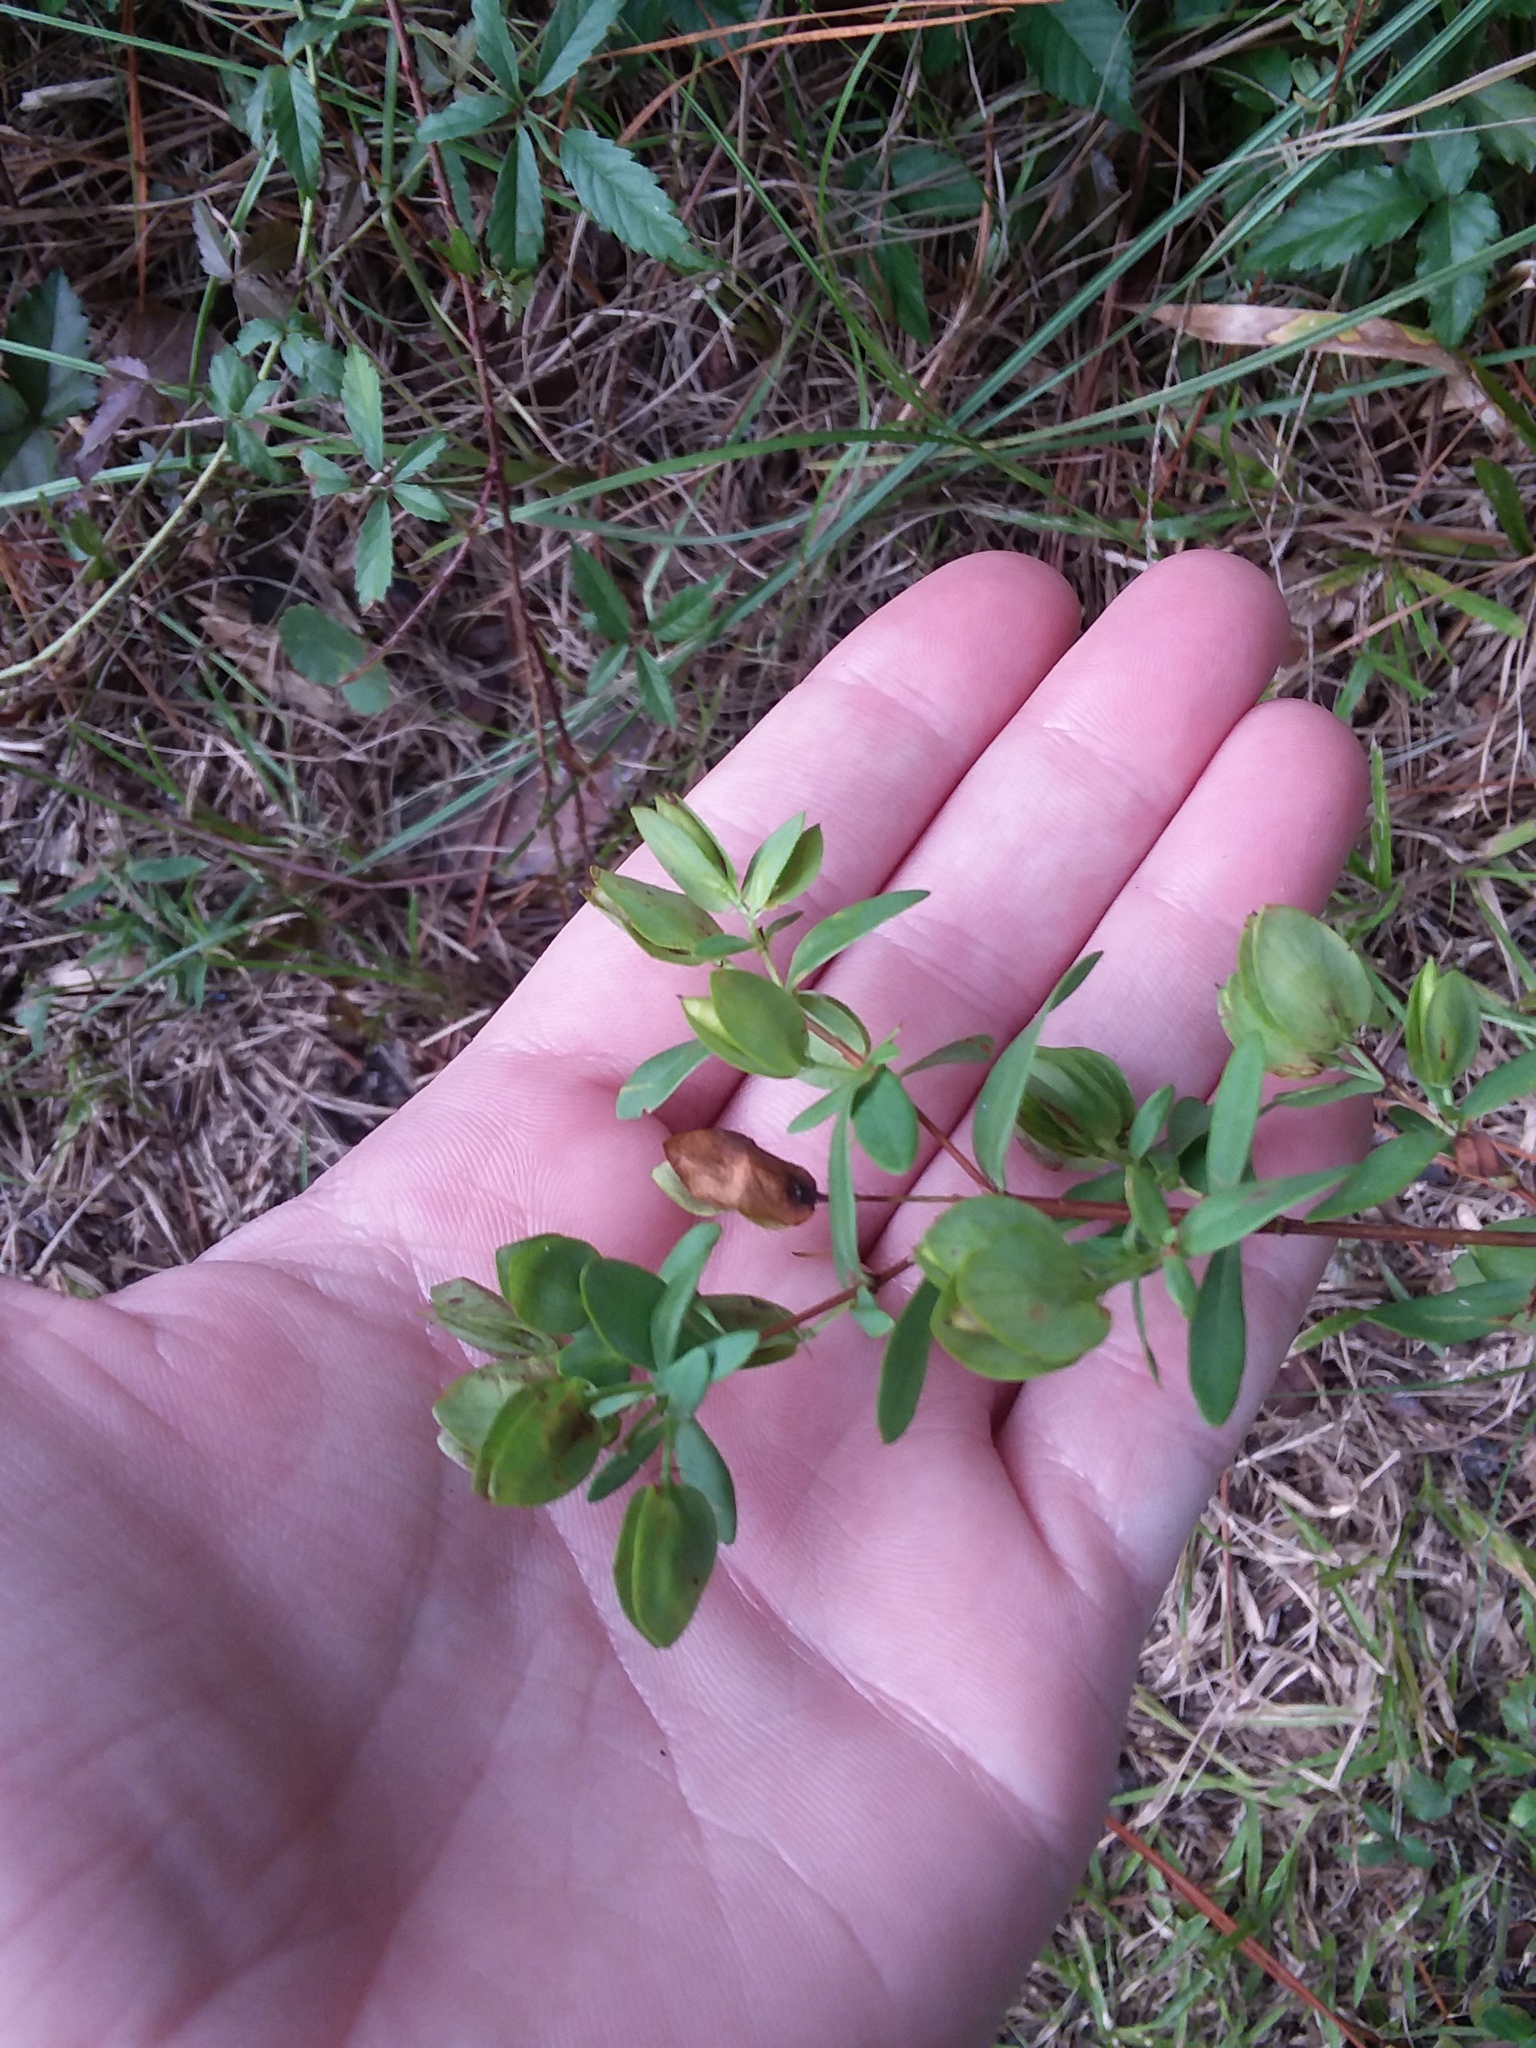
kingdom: Plantae
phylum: Tracheophyta
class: Magnoliopsida
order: Malpighiales
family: Hypericaceae
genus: Hypericum
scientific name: Hypericum hypericoides
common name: St. andrew's cross
